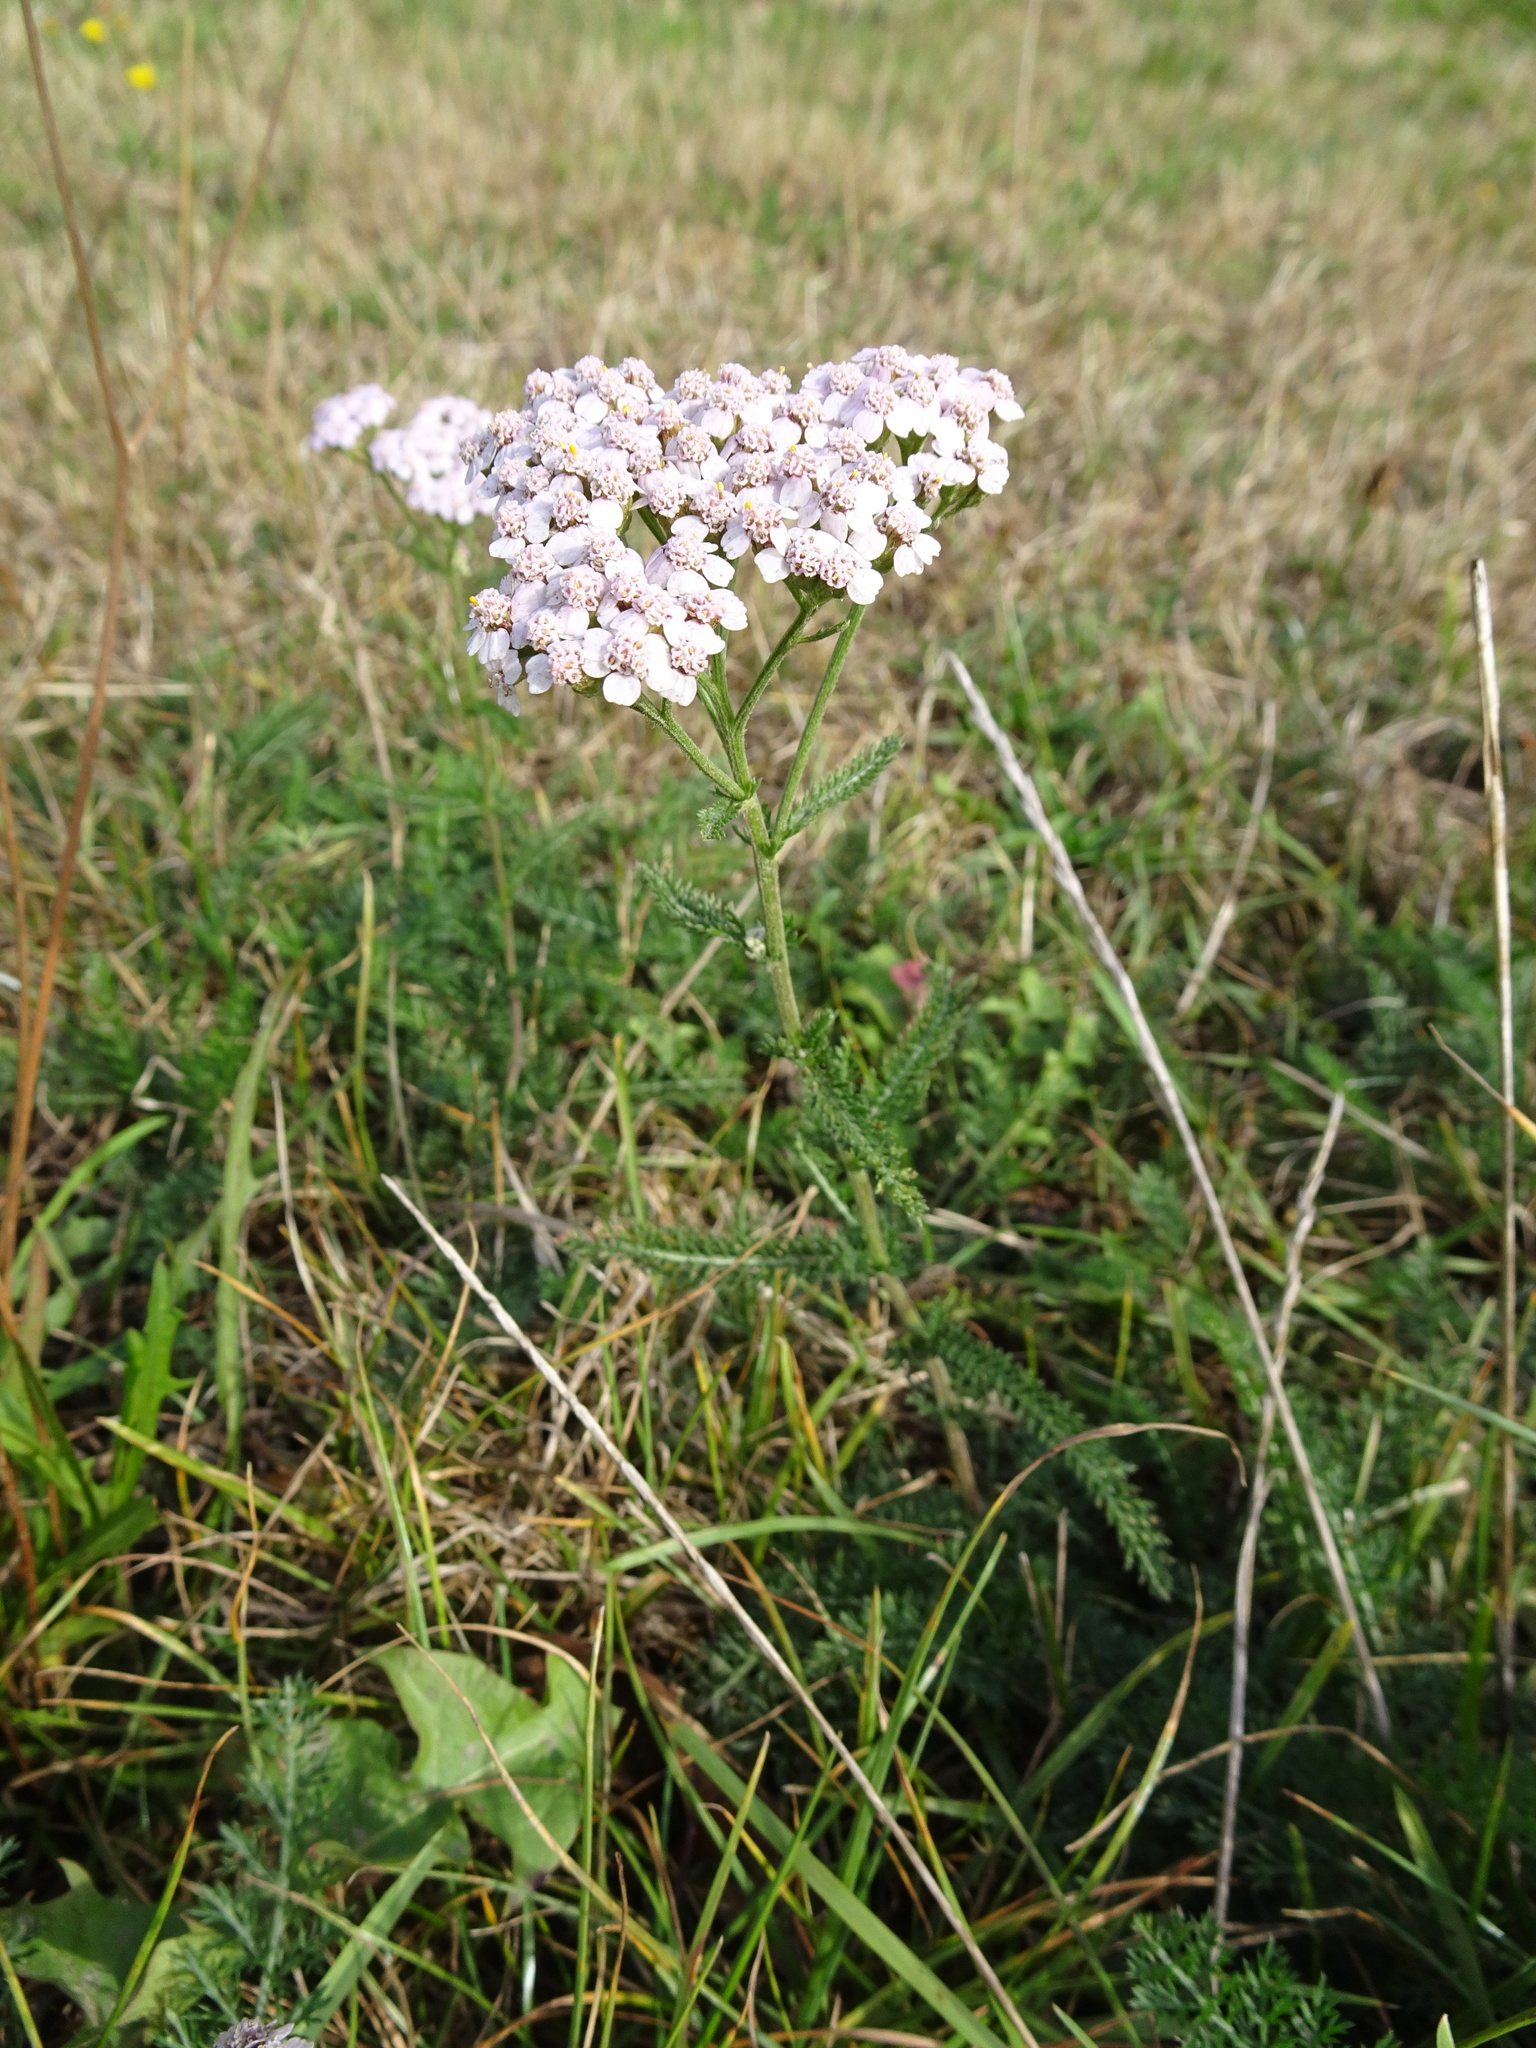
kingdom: Plantae
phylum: Tracheophyta
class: Magnoliopsida
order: Asterales
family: Asteraceae
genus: Achillea
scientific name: Achillea millefolium
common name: Yarrow
